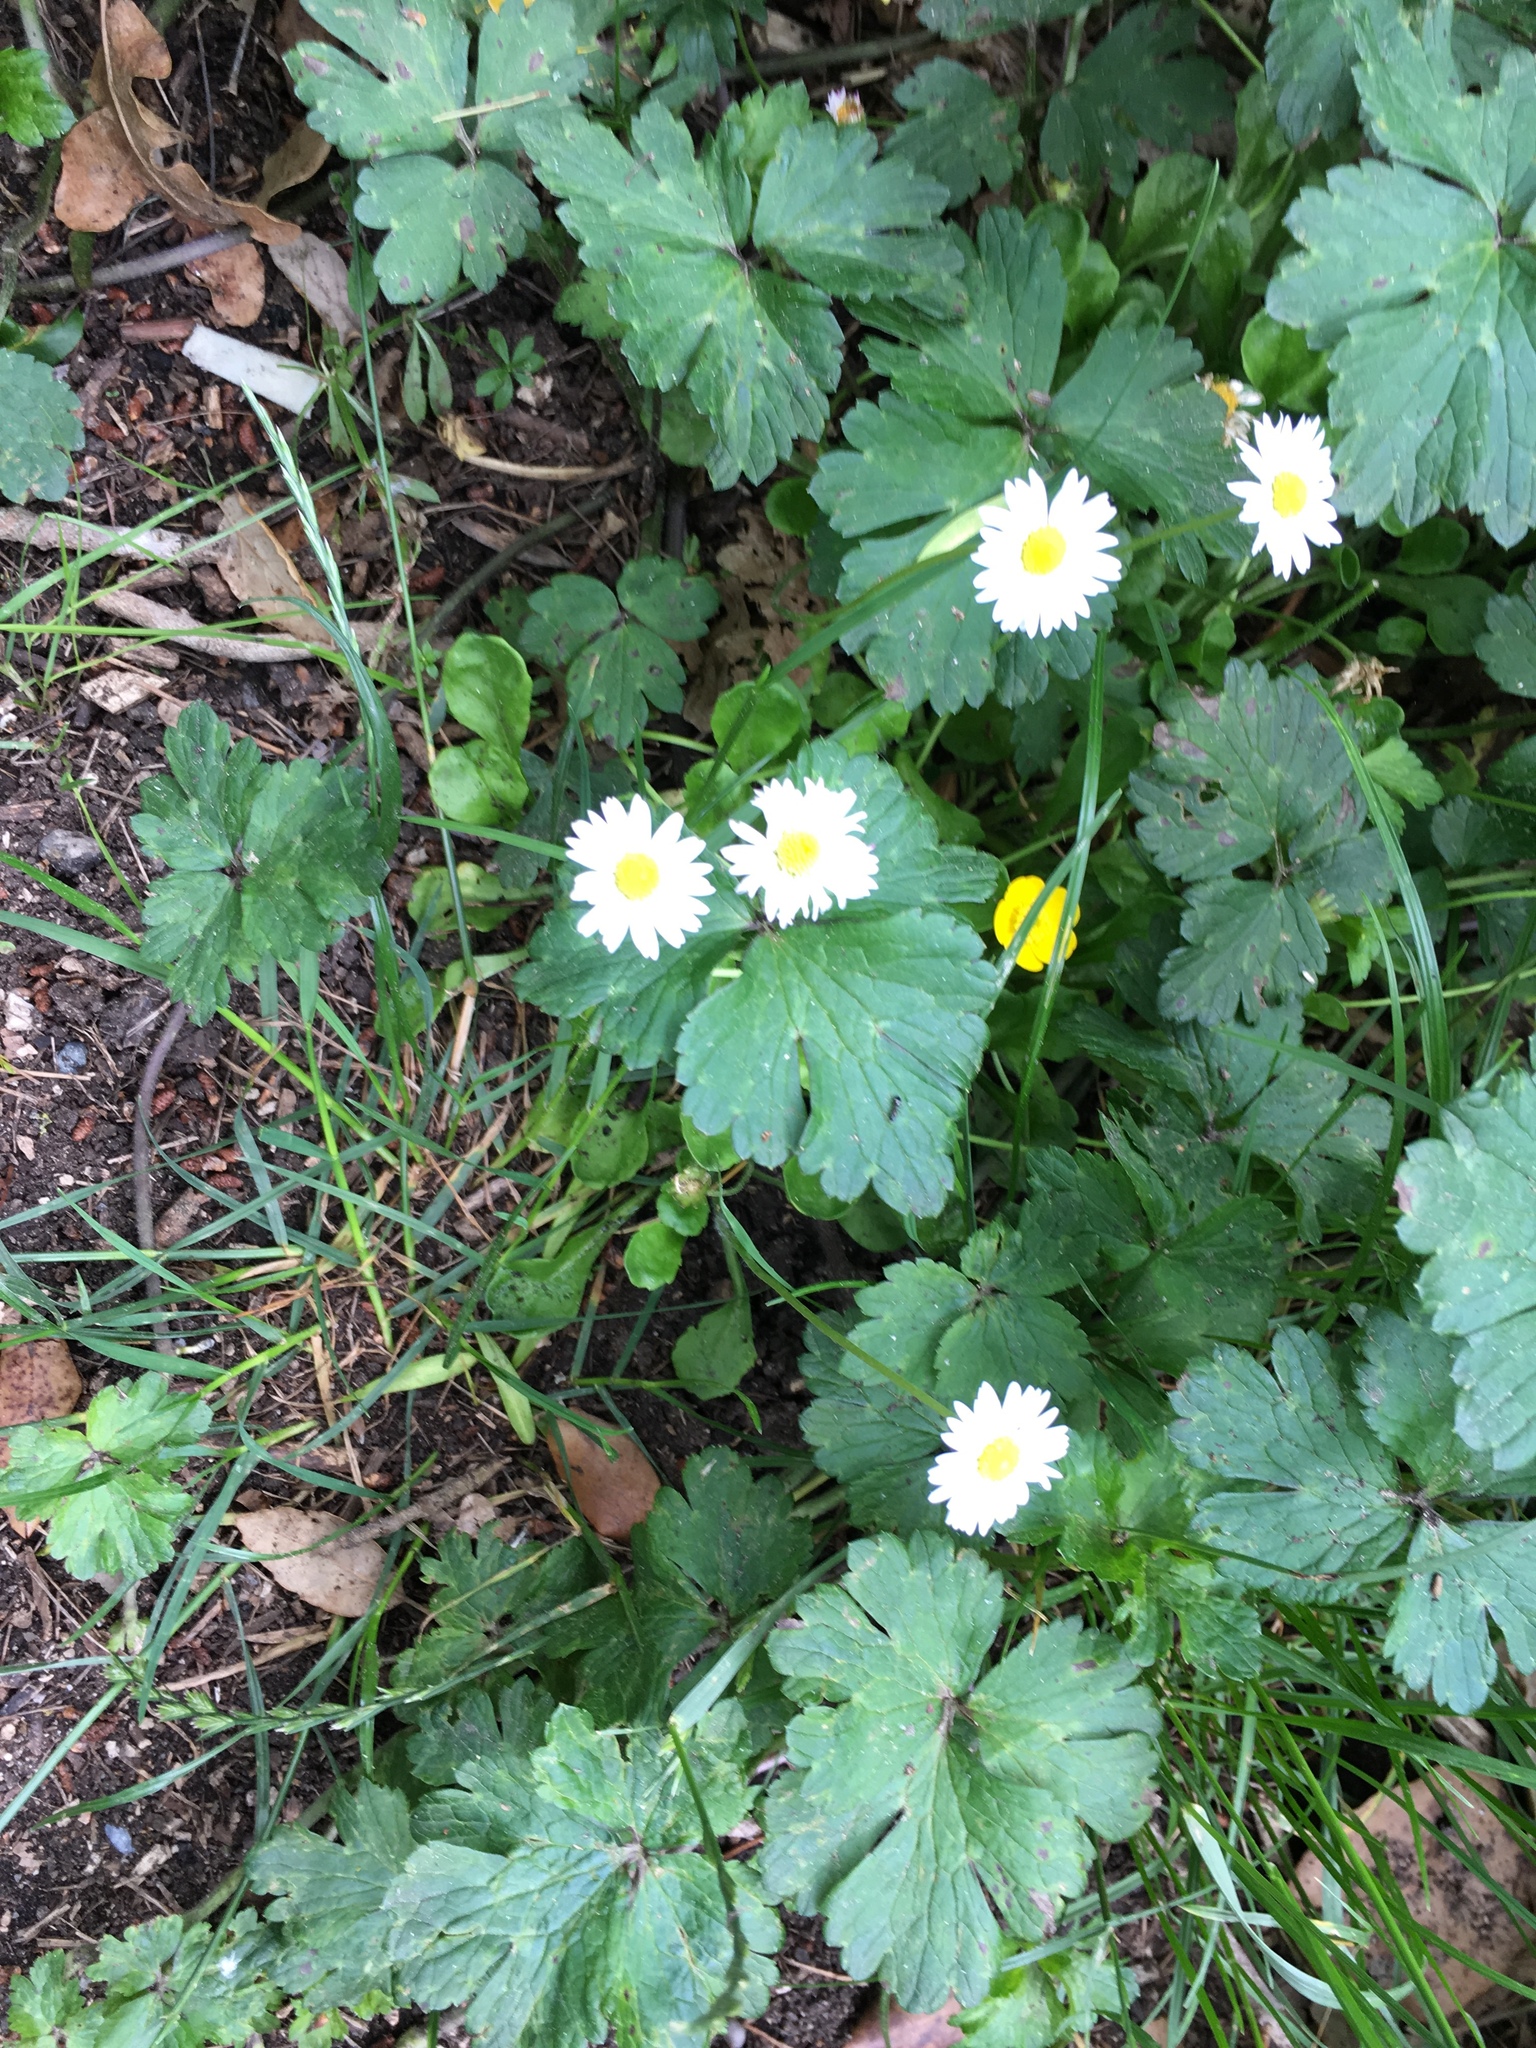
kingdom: Plantae
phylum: Tracheophyta
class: Magnoliopsida
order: Asterales
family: Asteraceae
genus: Bellis
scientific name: Bellis perennis
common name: Lawndaisy
